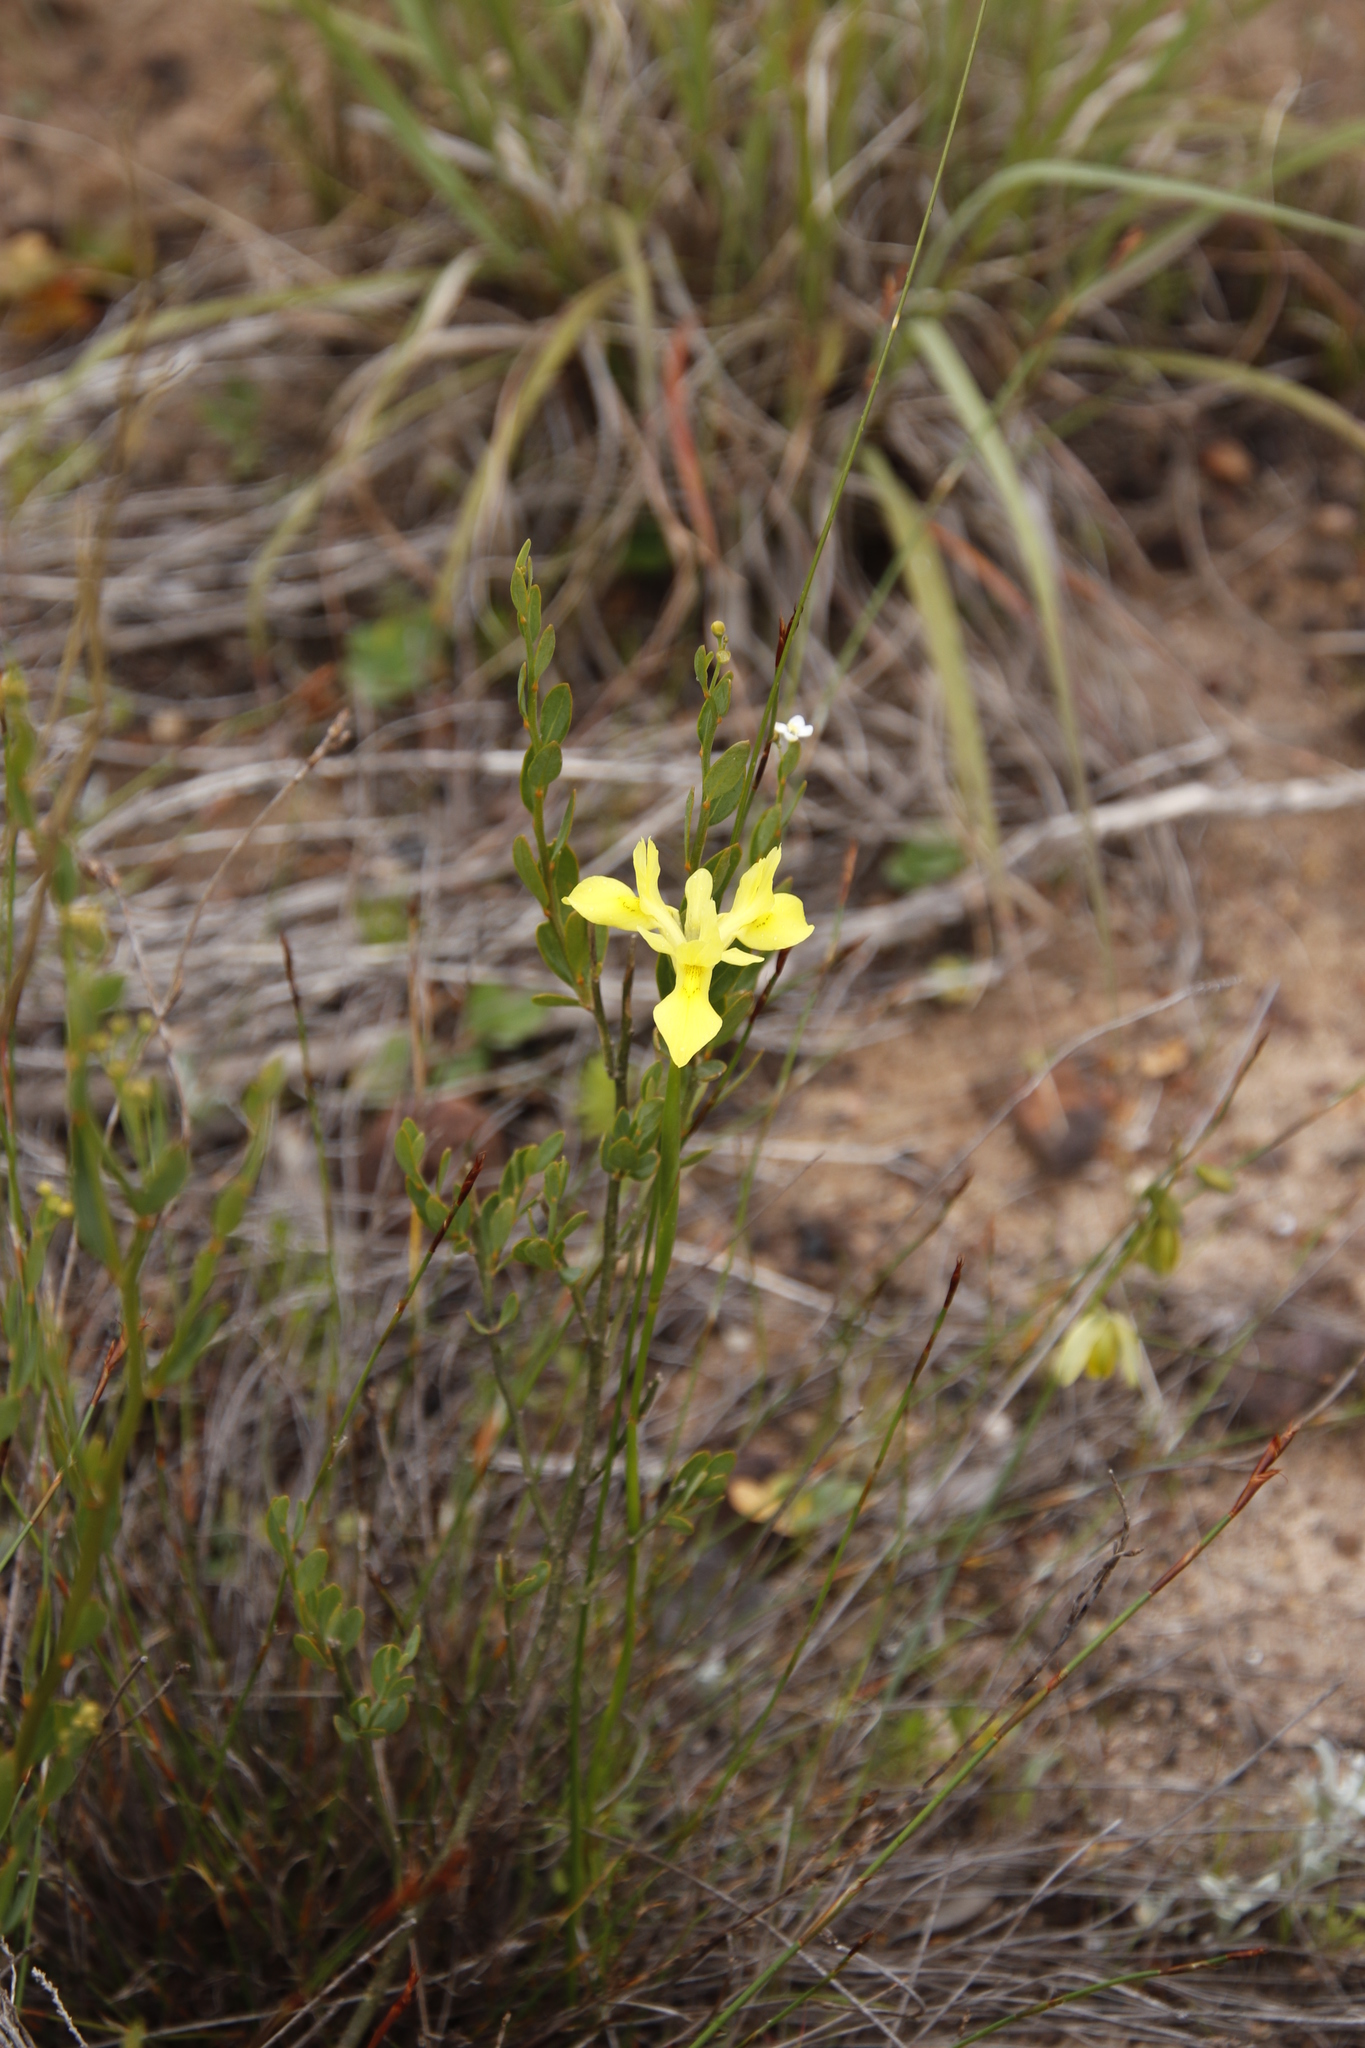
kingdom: Plantae
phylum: Tracheophyta
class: Liliopsida
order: Asparagales
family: Iridaceae
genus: Moraea
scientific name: Moraea anomala
